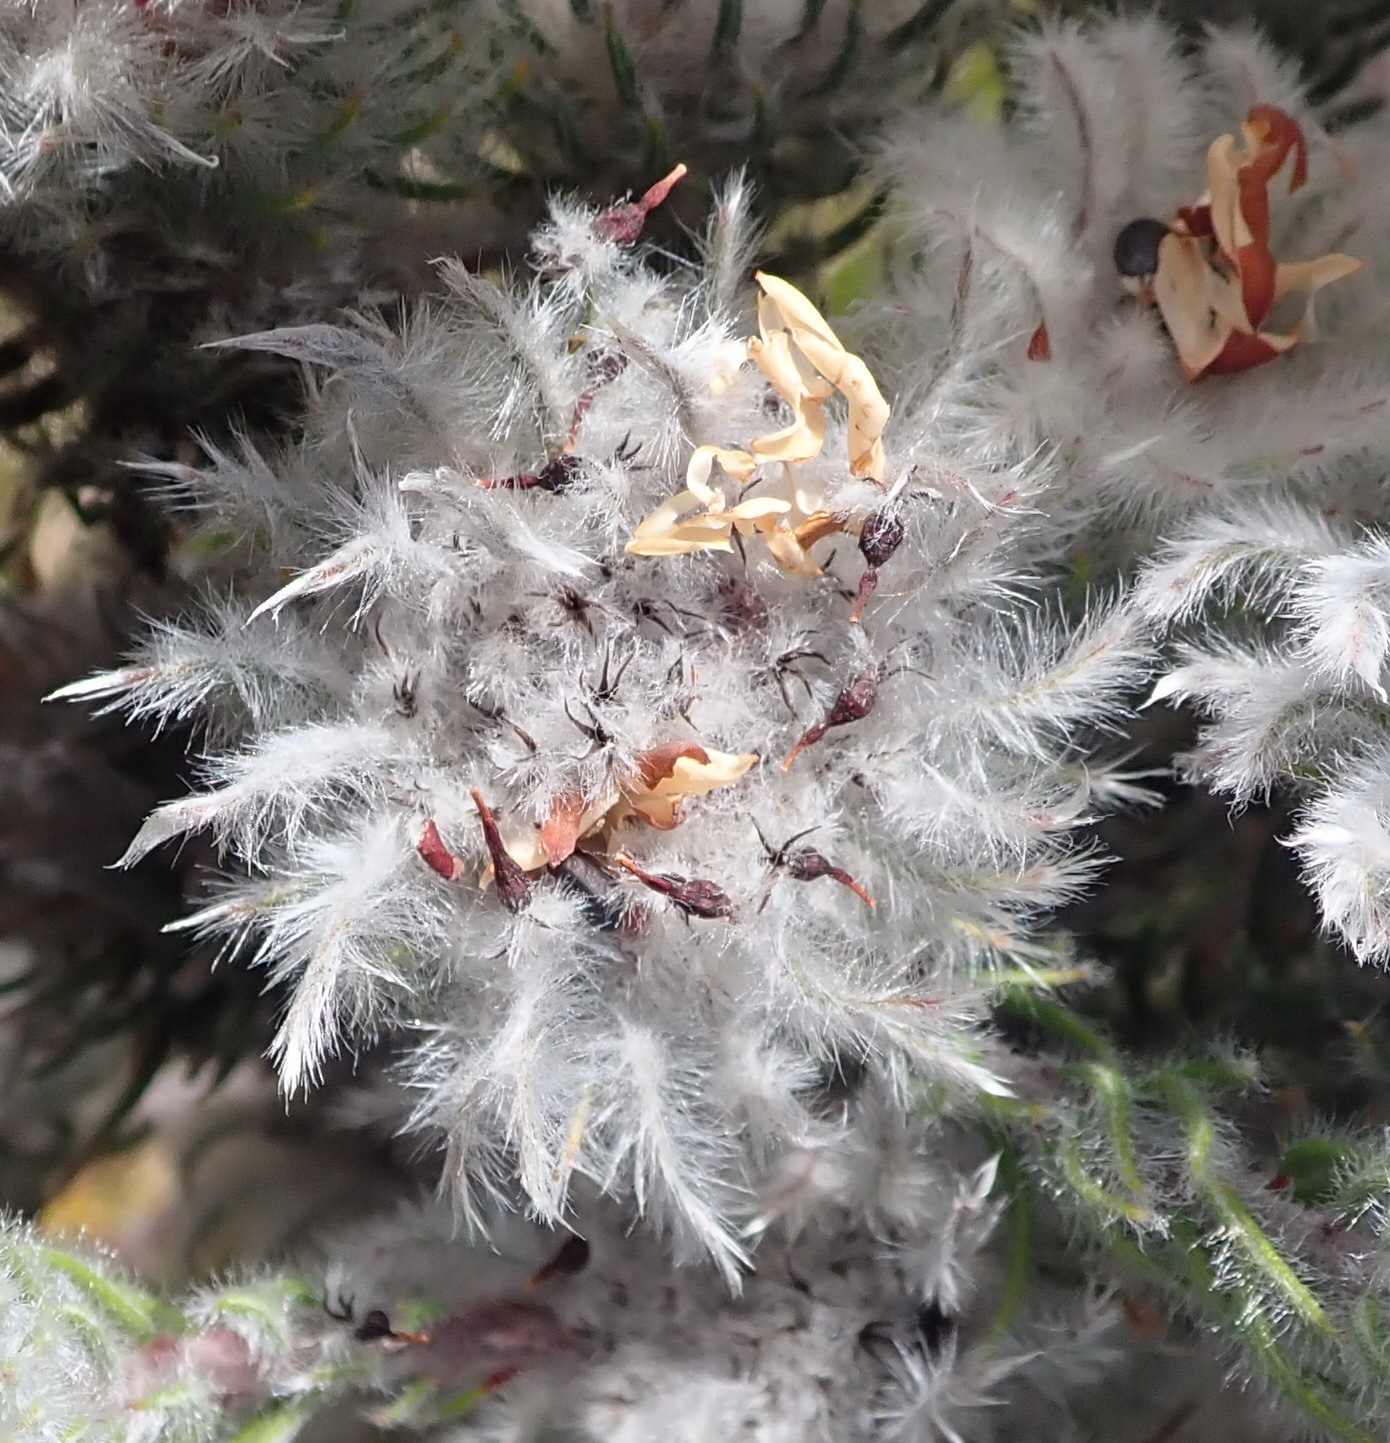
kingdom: Plantae
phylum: Tracheophyta
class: Magnoliopsida
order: Rosales
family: Rhamnaceae
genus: Phylica
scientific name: Phylica meyeri
